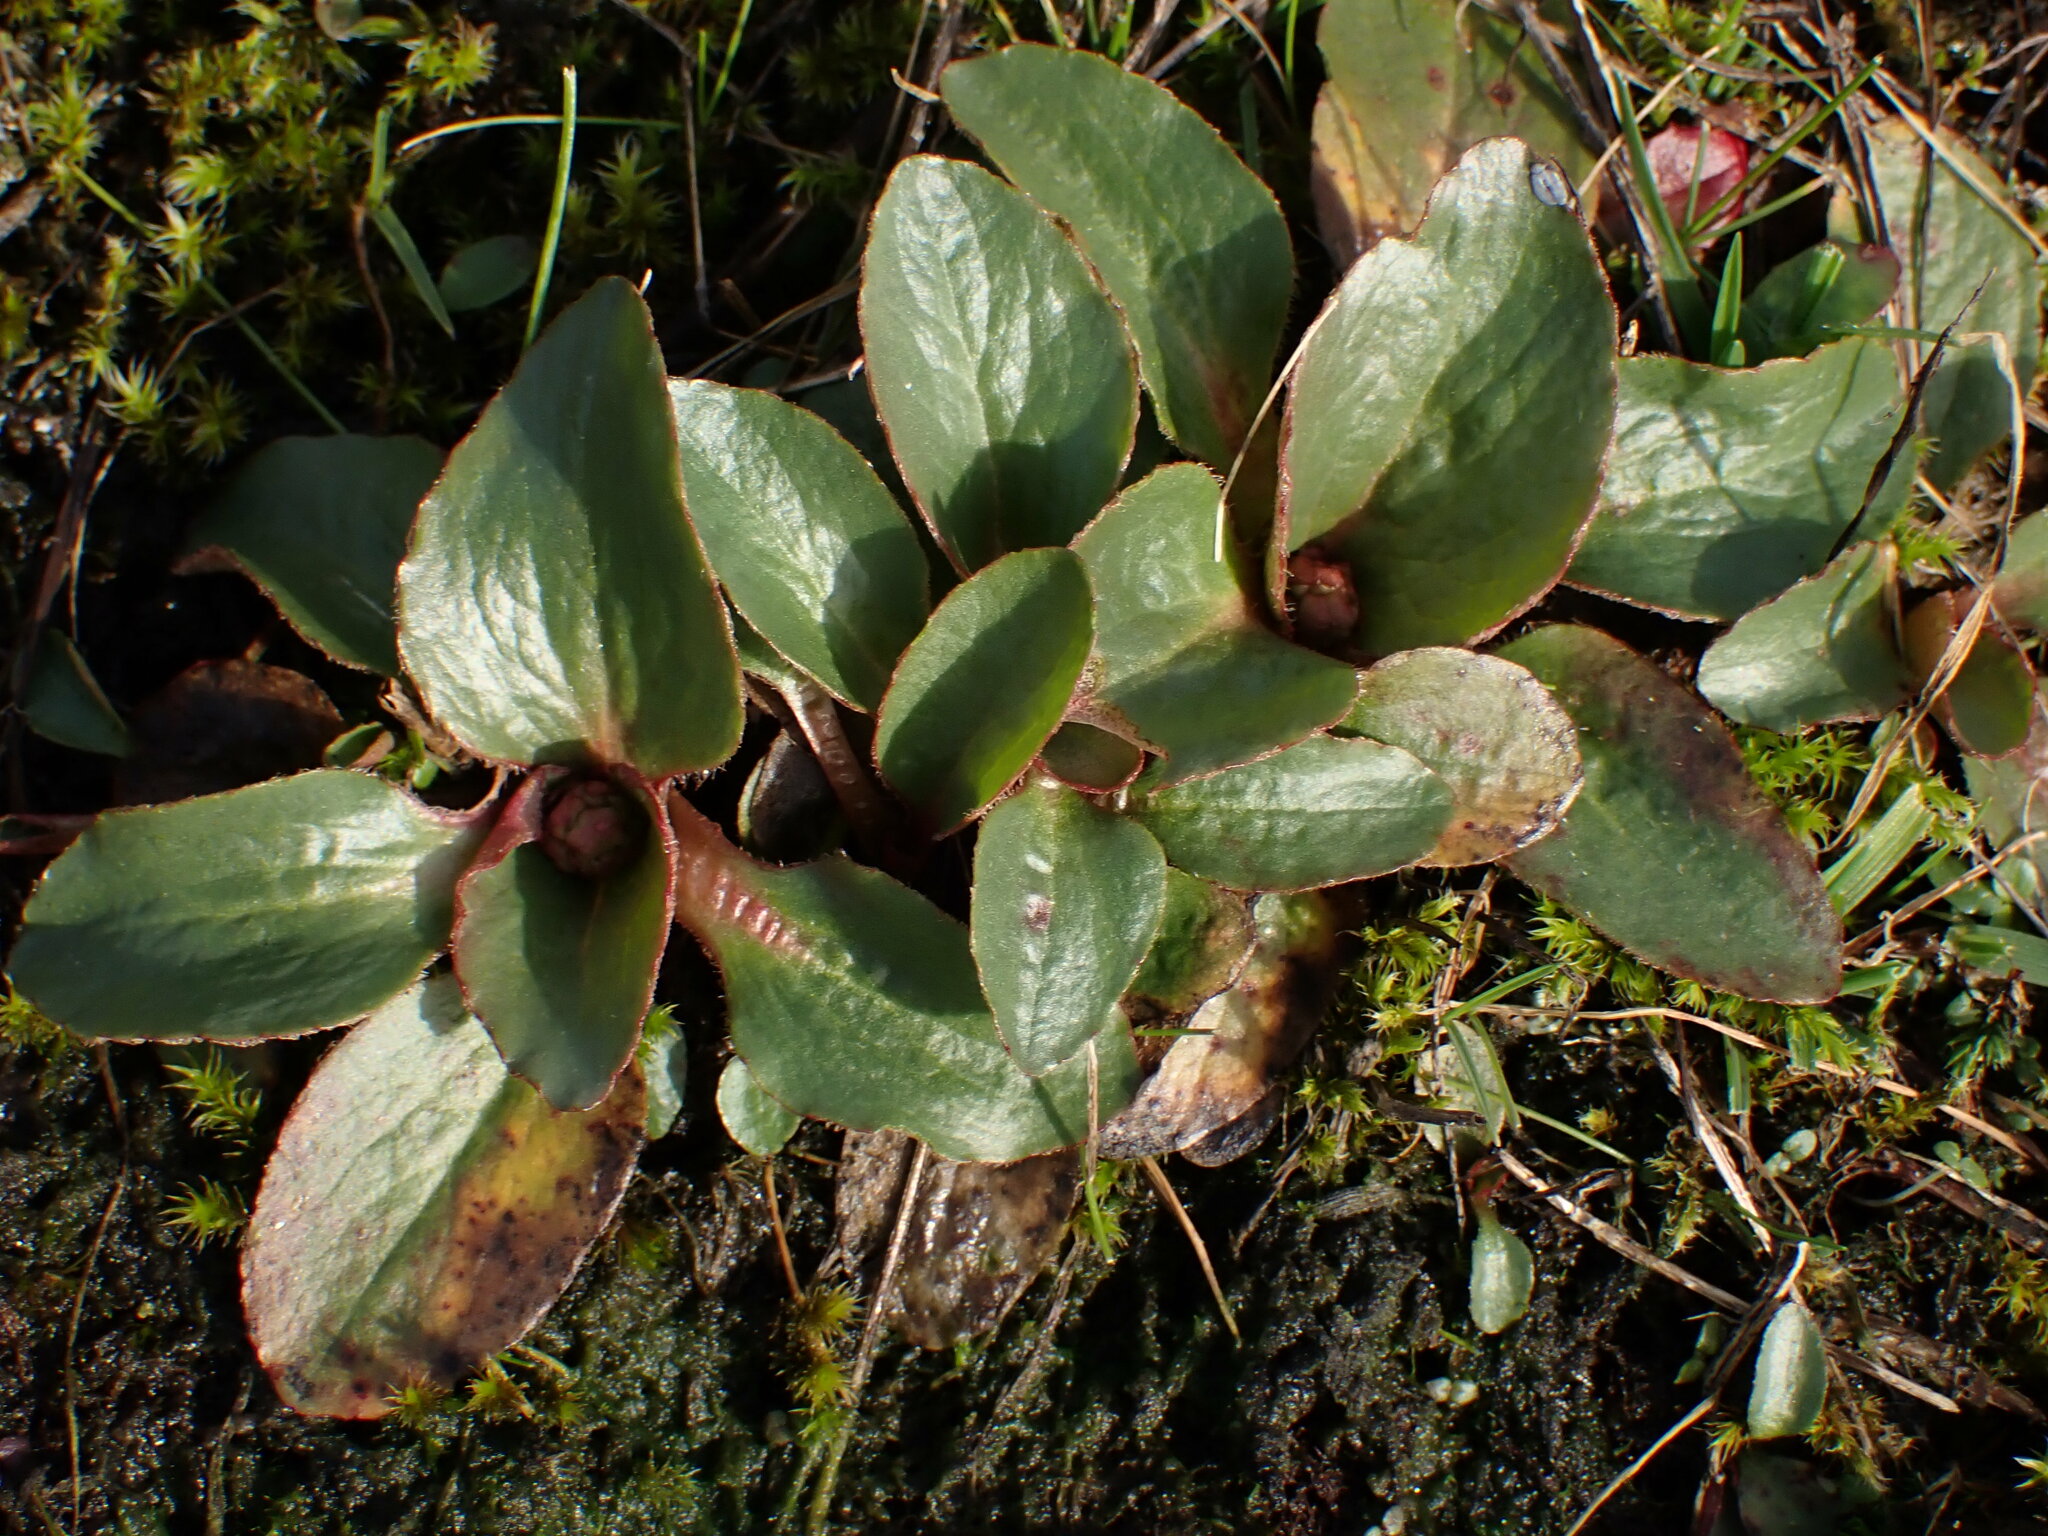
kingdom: Plantae
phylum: Tracheophyta
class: Magnoliopsida
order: Saxifragales
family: Saxifragaceae
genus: Micranthes
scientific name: Micranthes integrifolia
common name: Wholeleaf saxifrage
